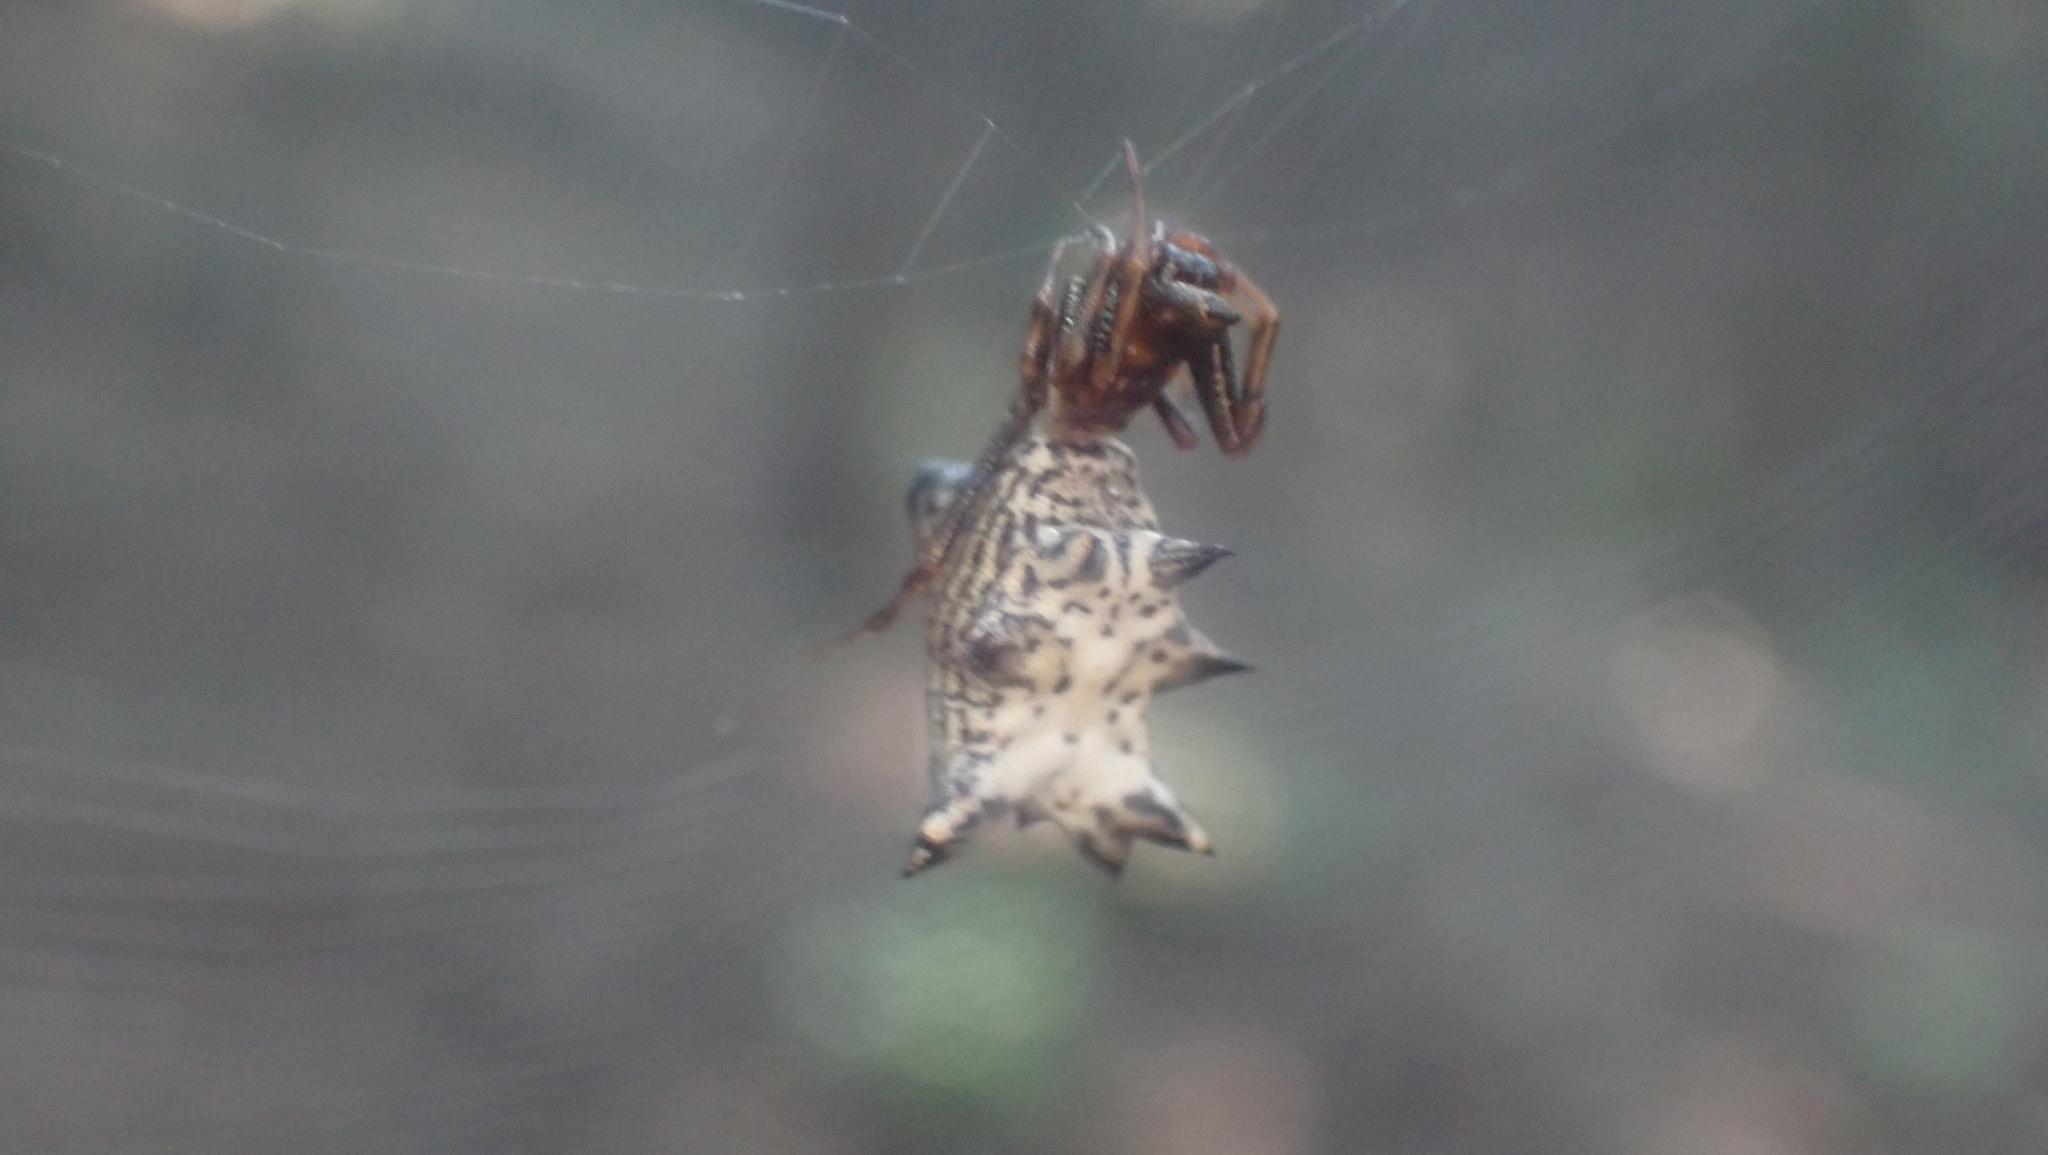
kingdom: Animalia
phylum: Arthropoda
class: Arachnida
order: Araneae
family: Araneidae
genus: Micrathena
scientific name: Micrathena gracilis
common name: Orb weavers
